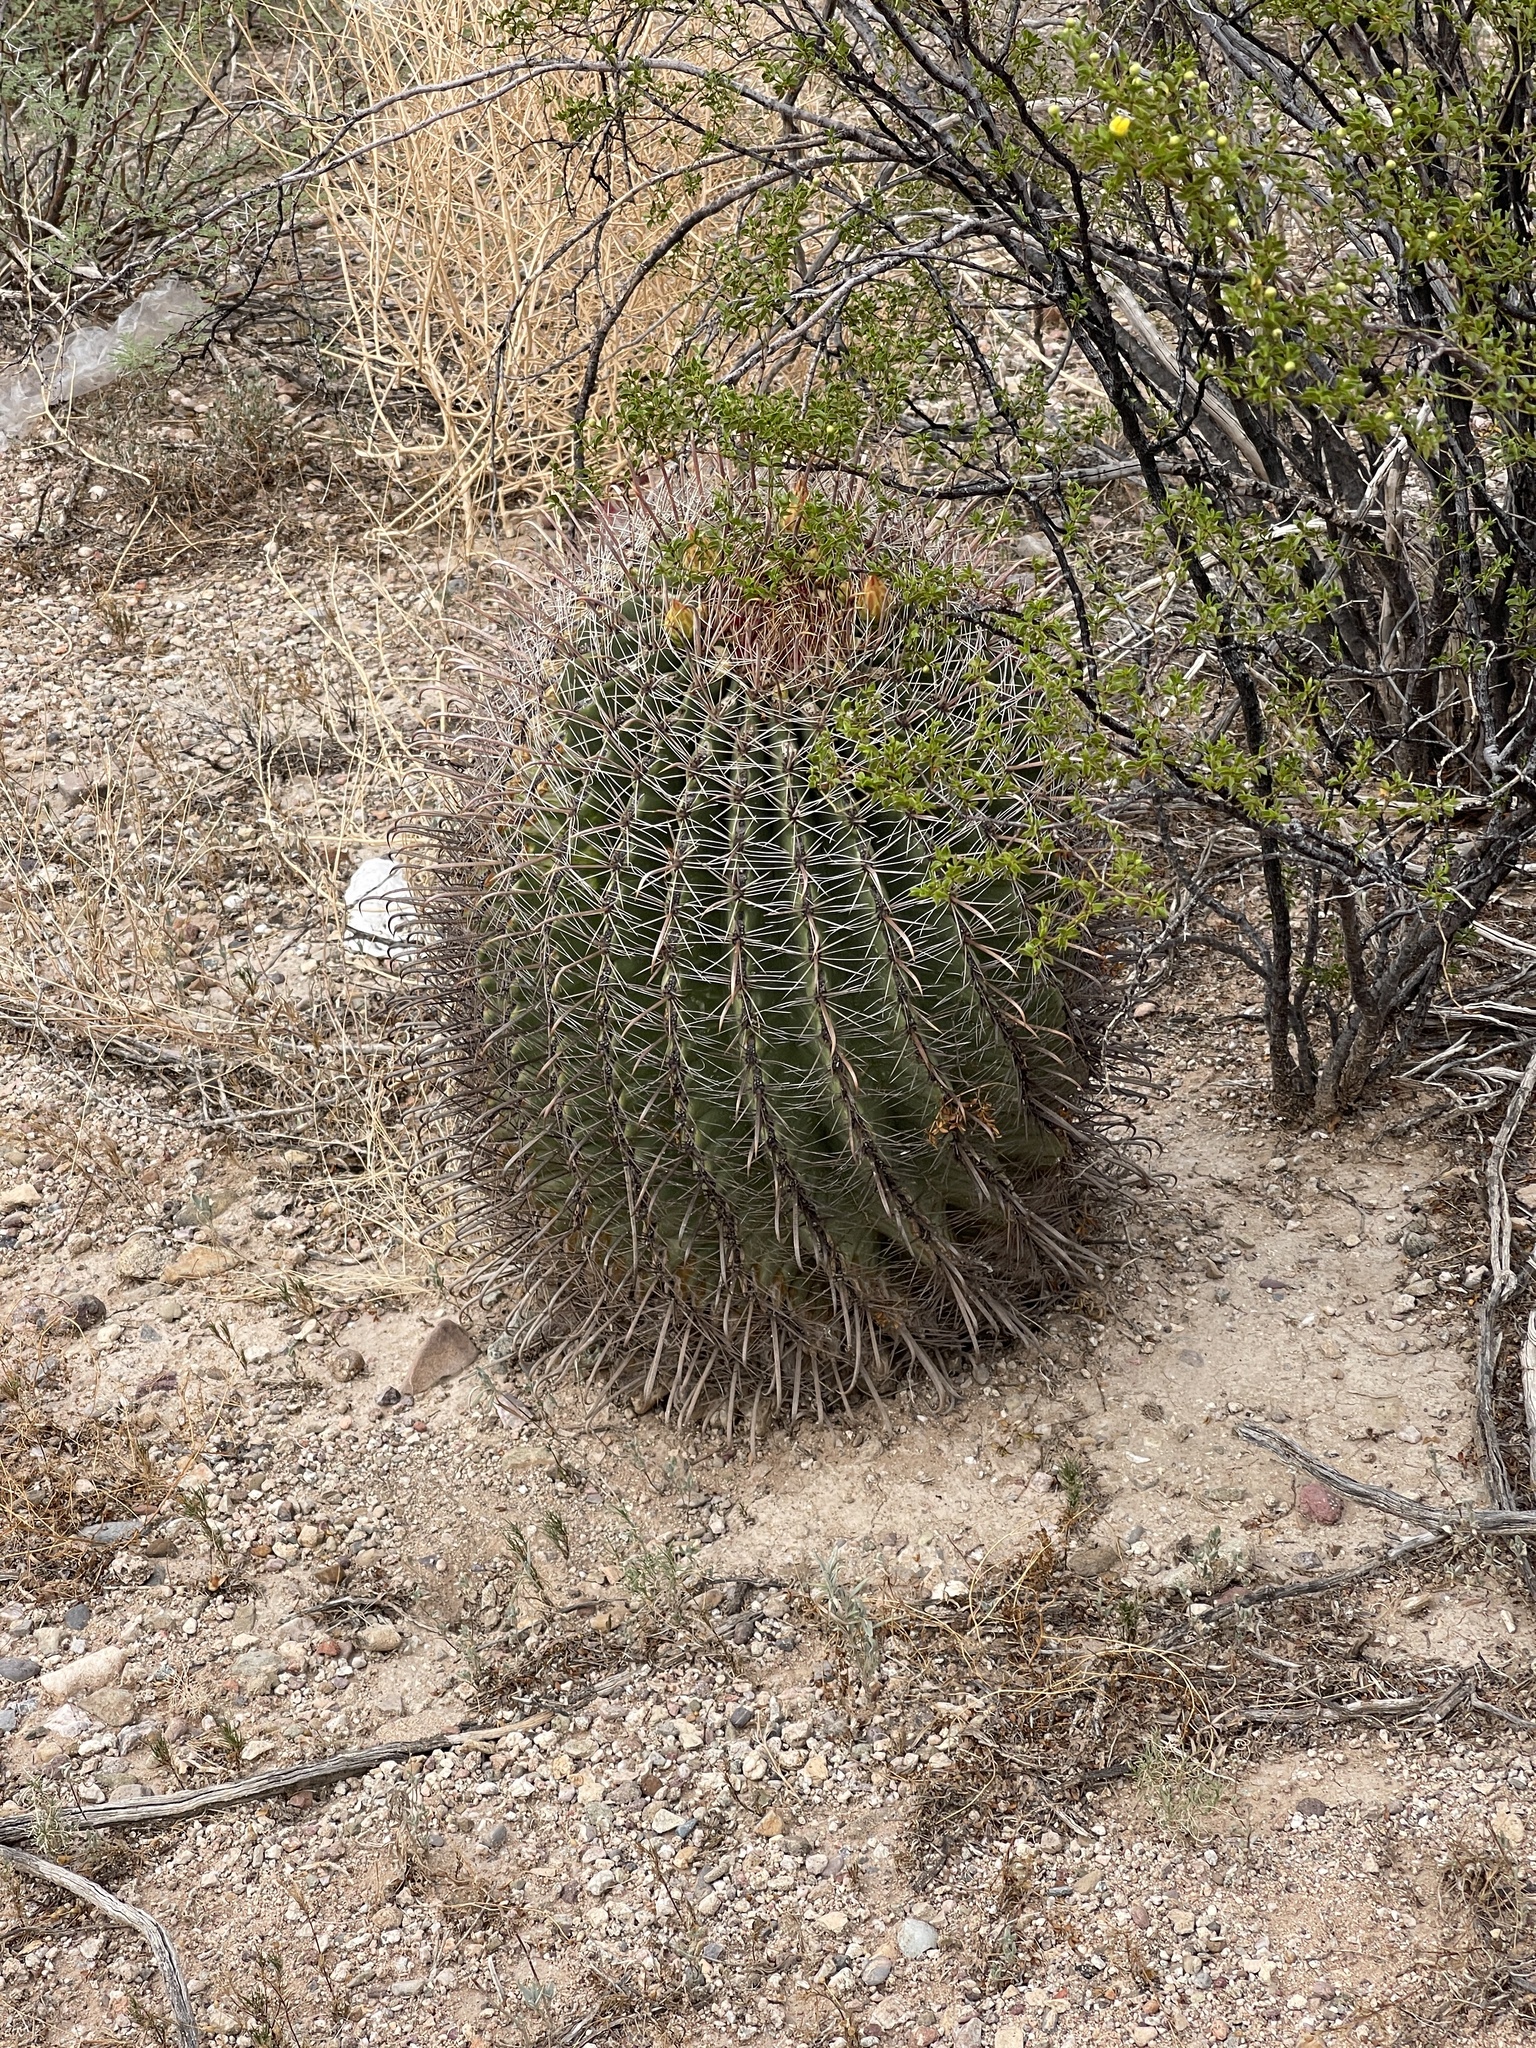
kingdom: Plantae
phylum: Tracheophyta
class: Magnoliopsida
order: Caryophyllales
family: Cactaceae
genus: Ferocactus
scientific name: Ferocactus wislizeni
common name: Candy barrel cactus
